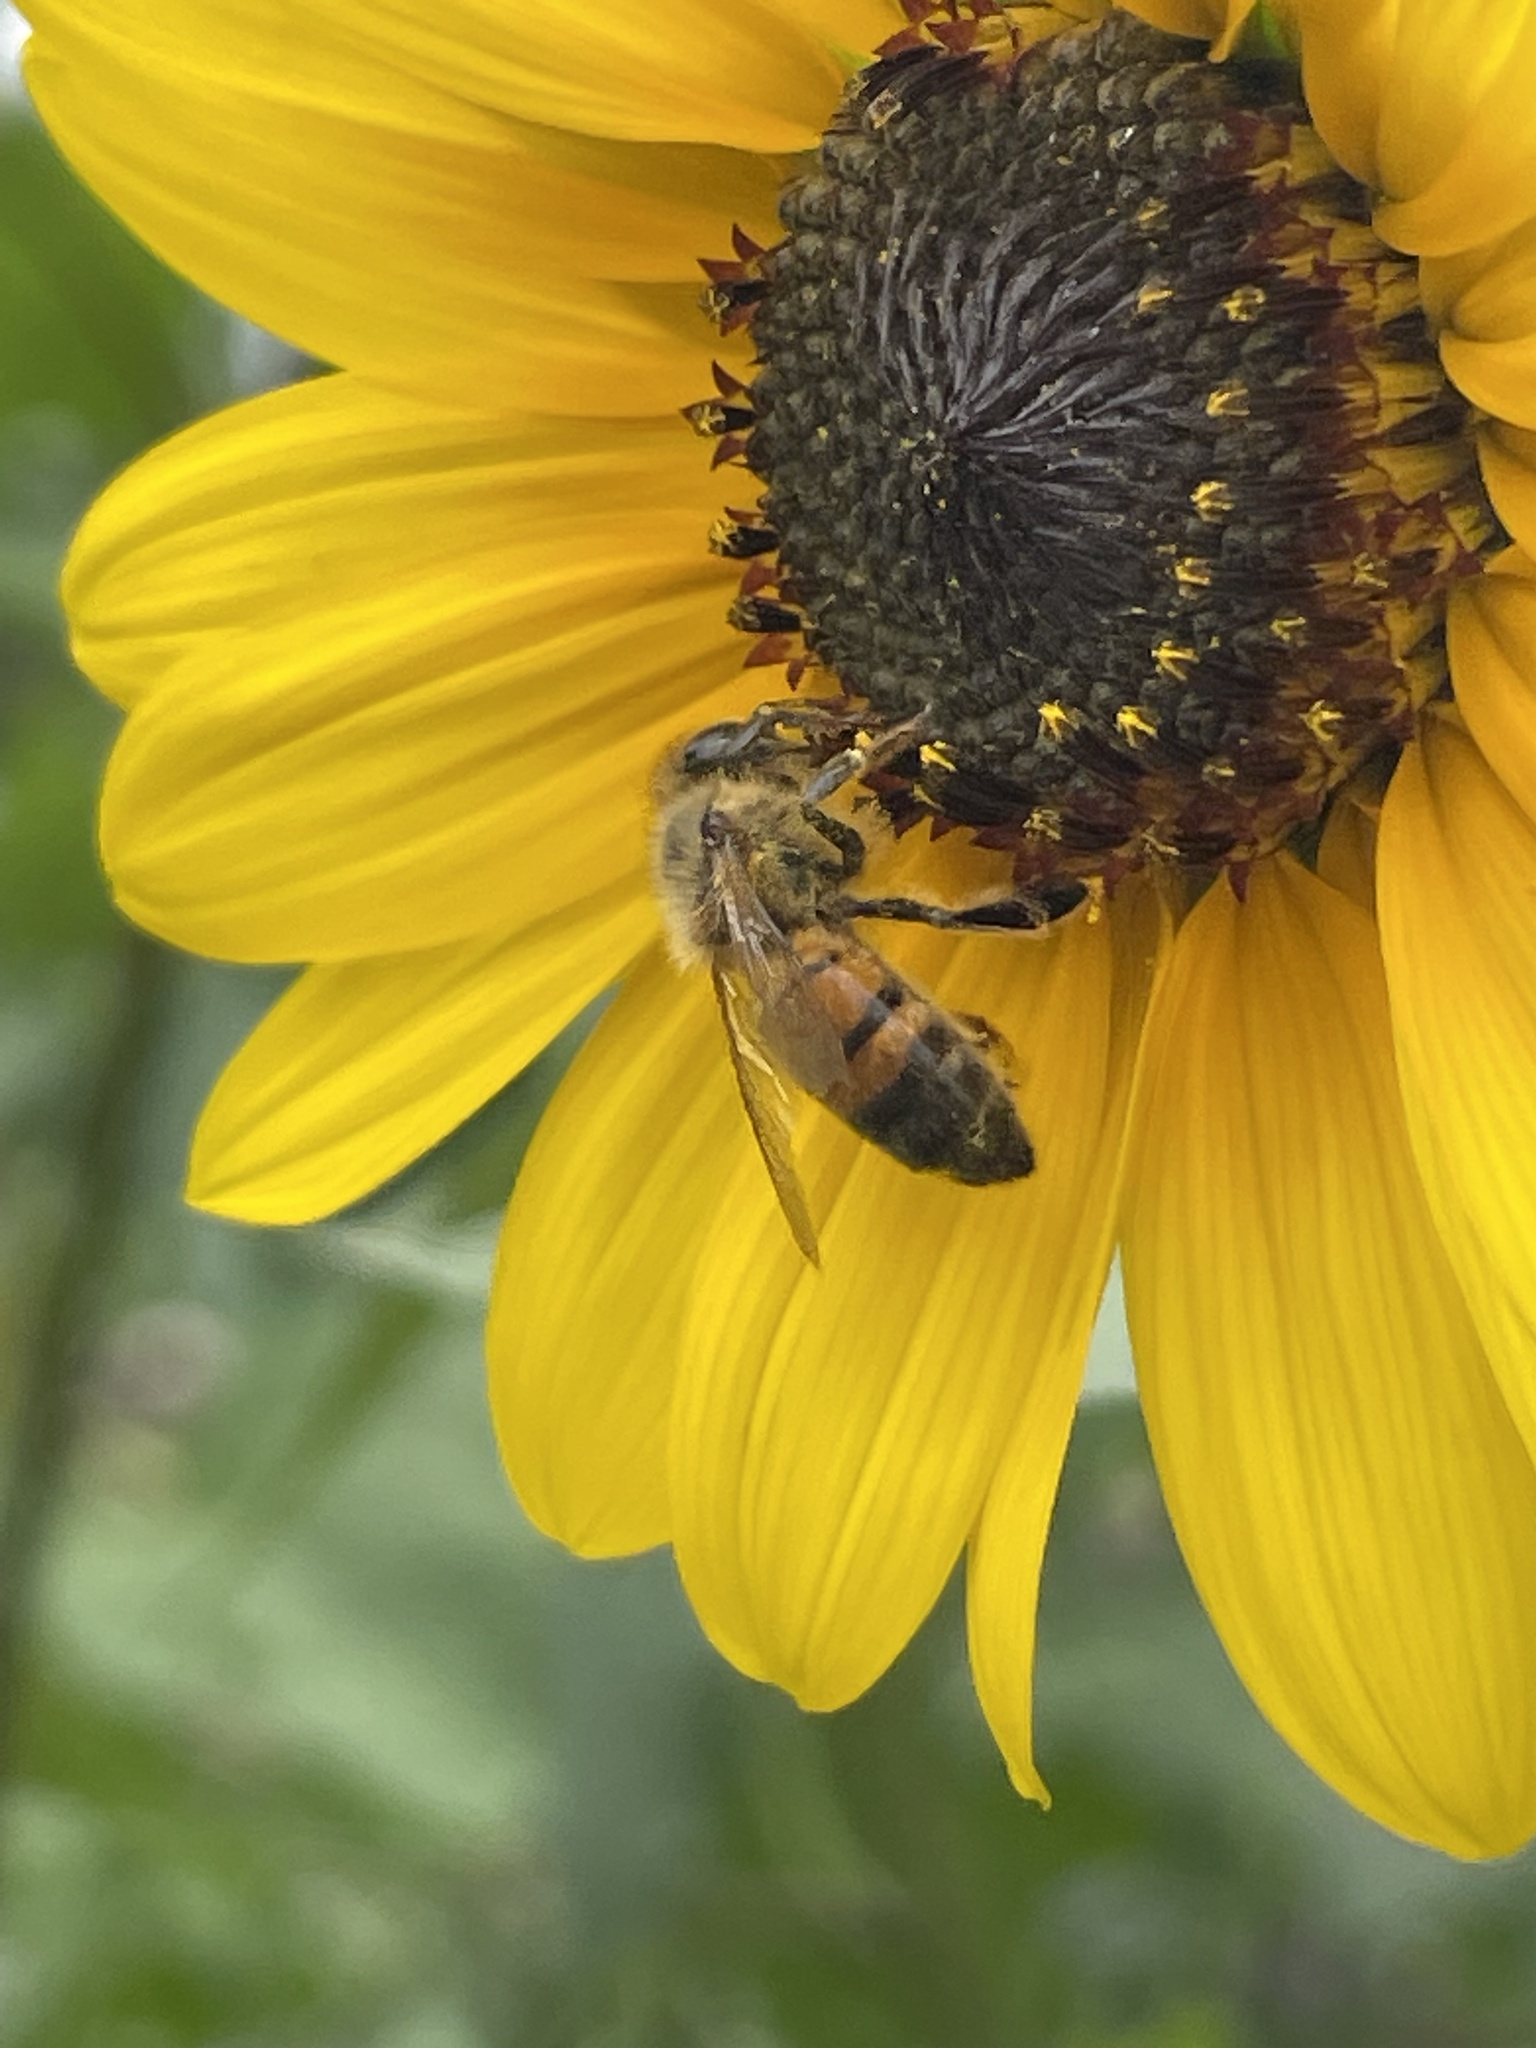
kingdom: Animalia
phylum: Arthropoda
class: Insecta
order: Hymenoptera
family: Apidae
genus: Apis
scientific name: Apis mellifera
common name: Honey bee
